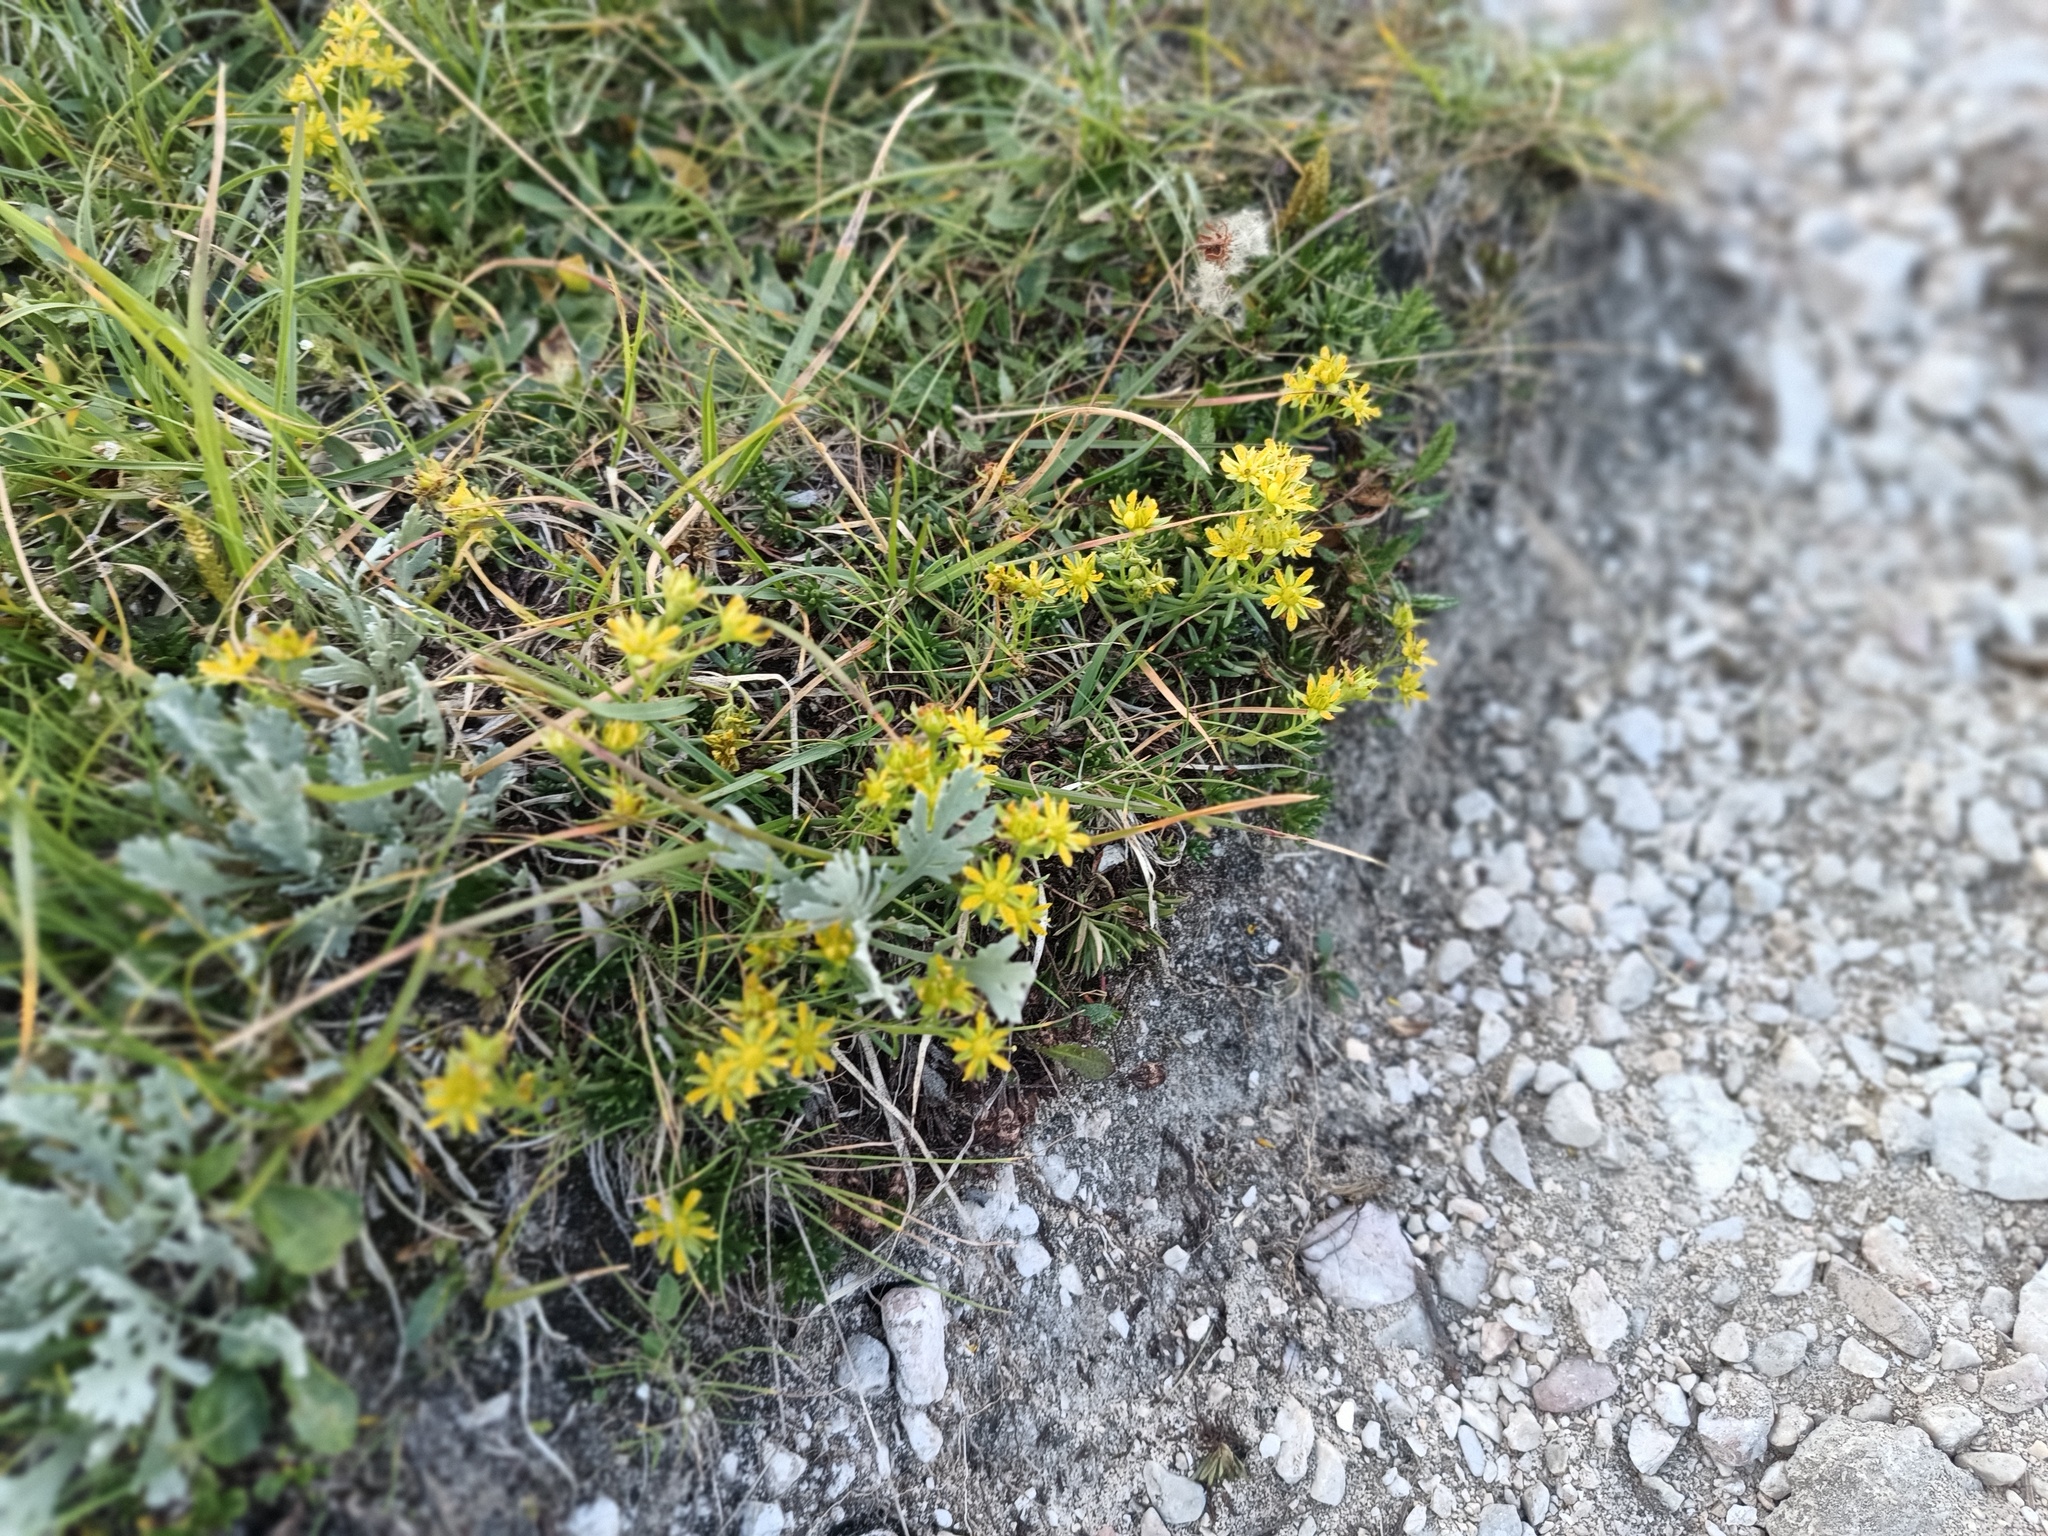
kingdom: Plantae
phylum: Tracheophyta
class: Magnoliopsida
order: Saxifragales
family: Saxifragaceae
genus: Saxifraga
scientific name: Saxifraga aizoides
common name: Yellow mountain saxifrage
